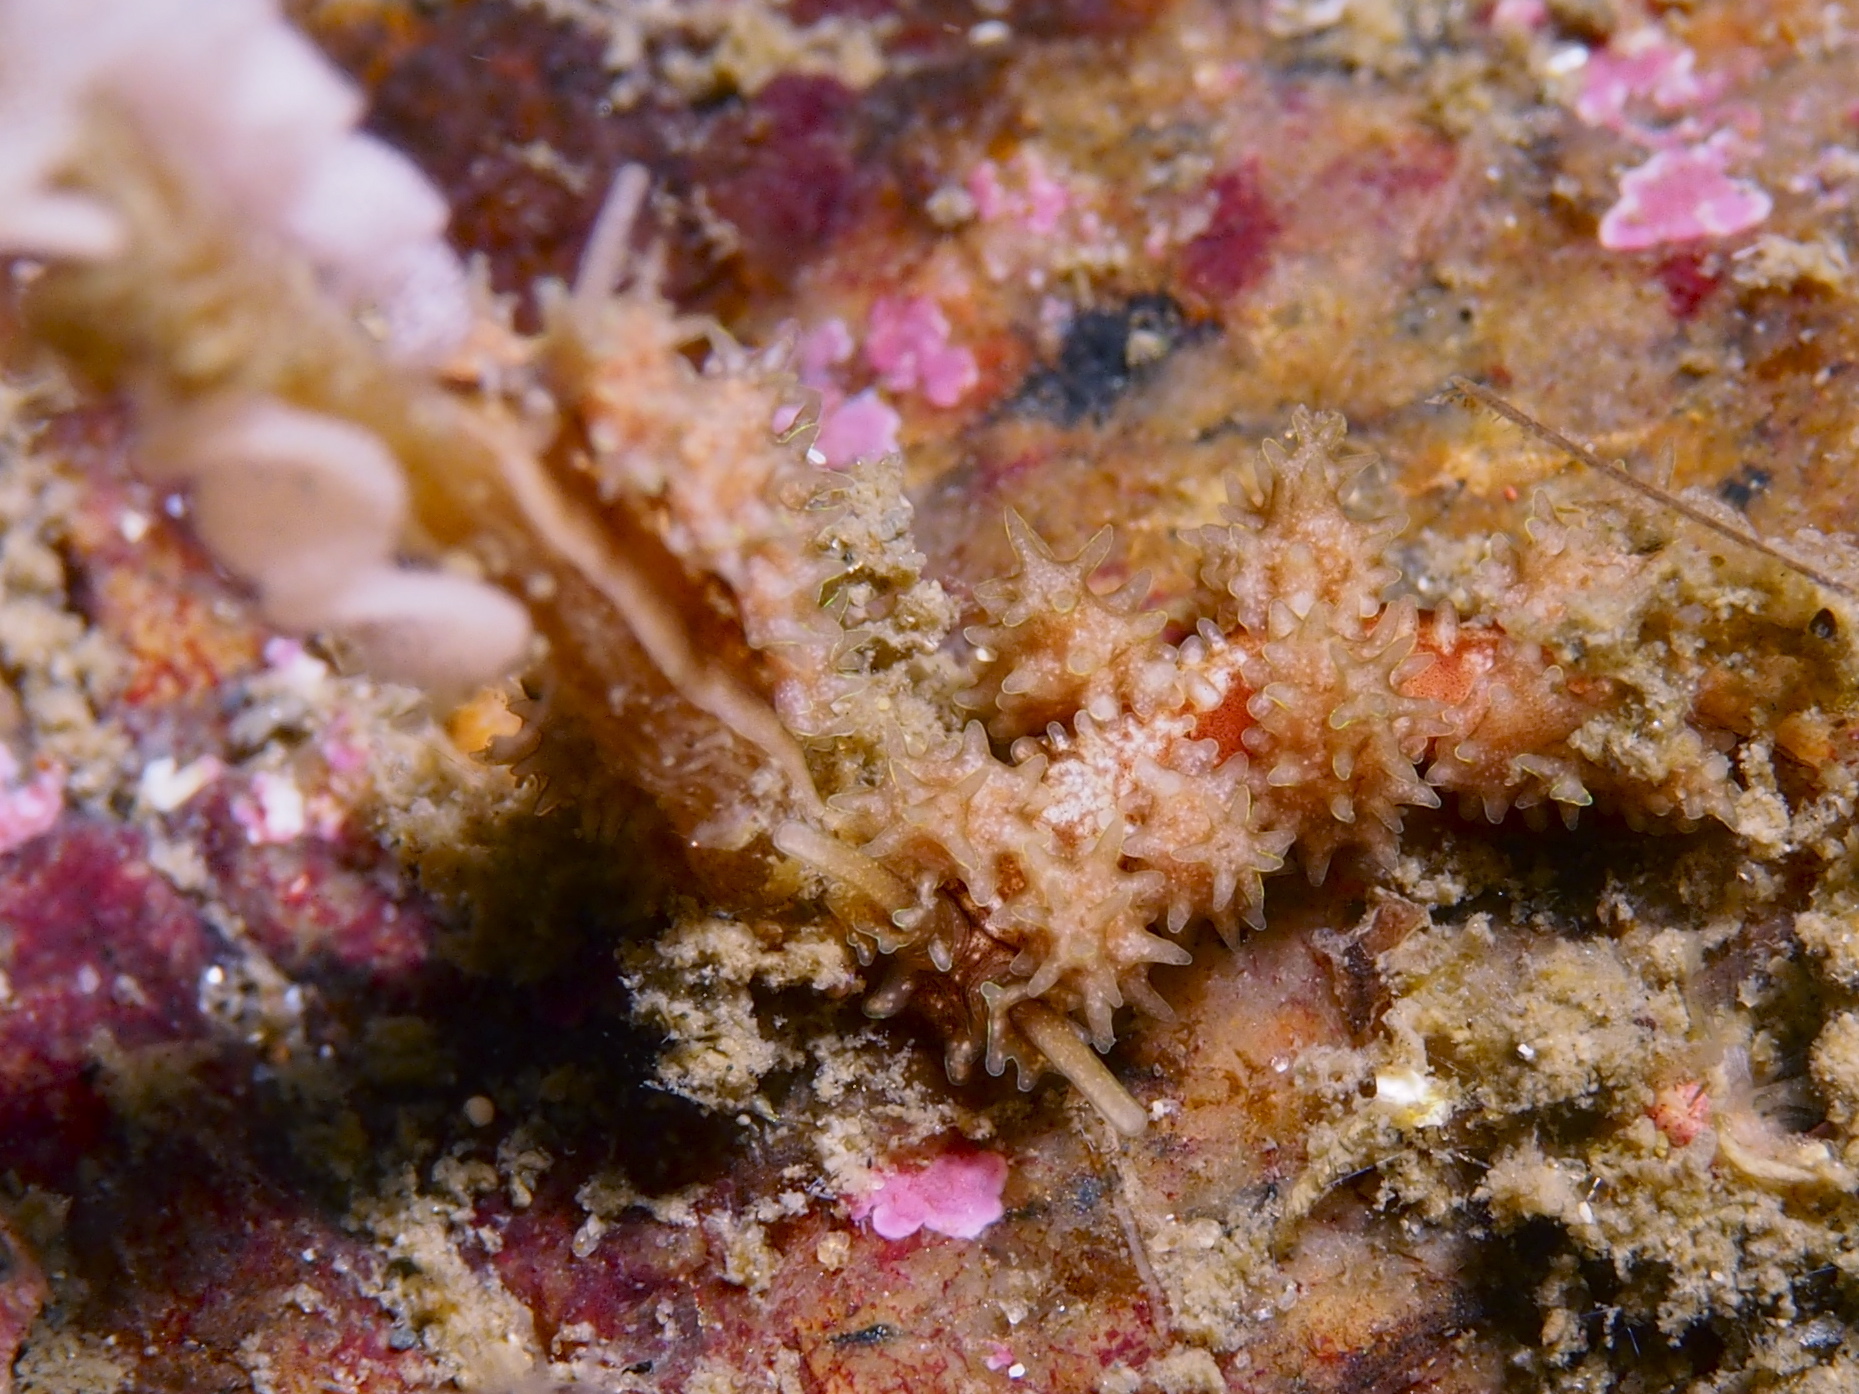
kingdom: Animalia
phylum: Mollusca
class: Gastropoda
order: Nudibranchia
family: Dotidae
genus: Doto
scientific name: Doto hystrix
